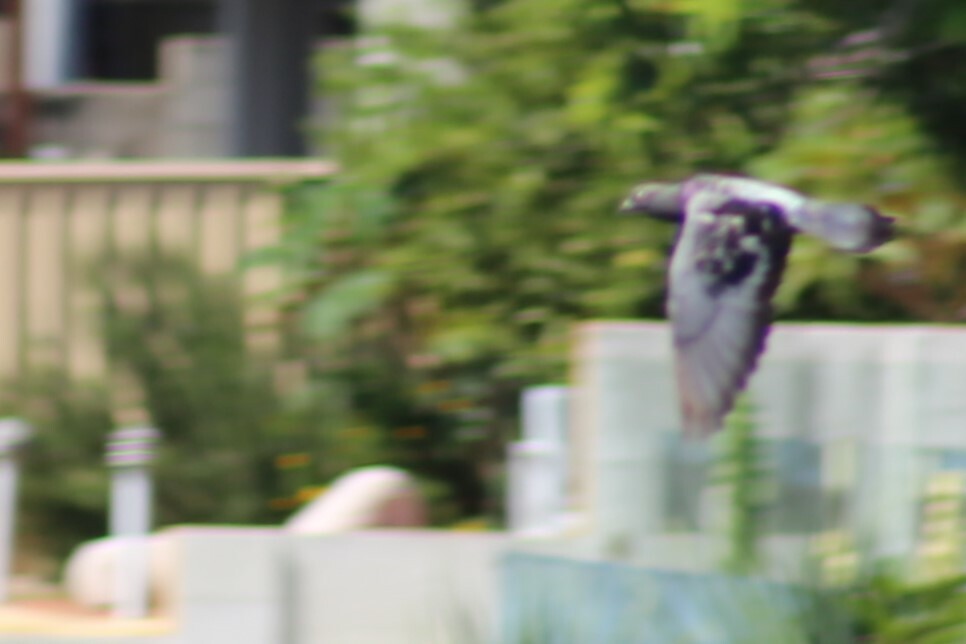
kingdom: Animalia
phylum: Chordata
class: Aves
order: Columbiformes
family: Columbidae
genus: Columba
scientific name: Columba livia
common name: Rock pigeon
